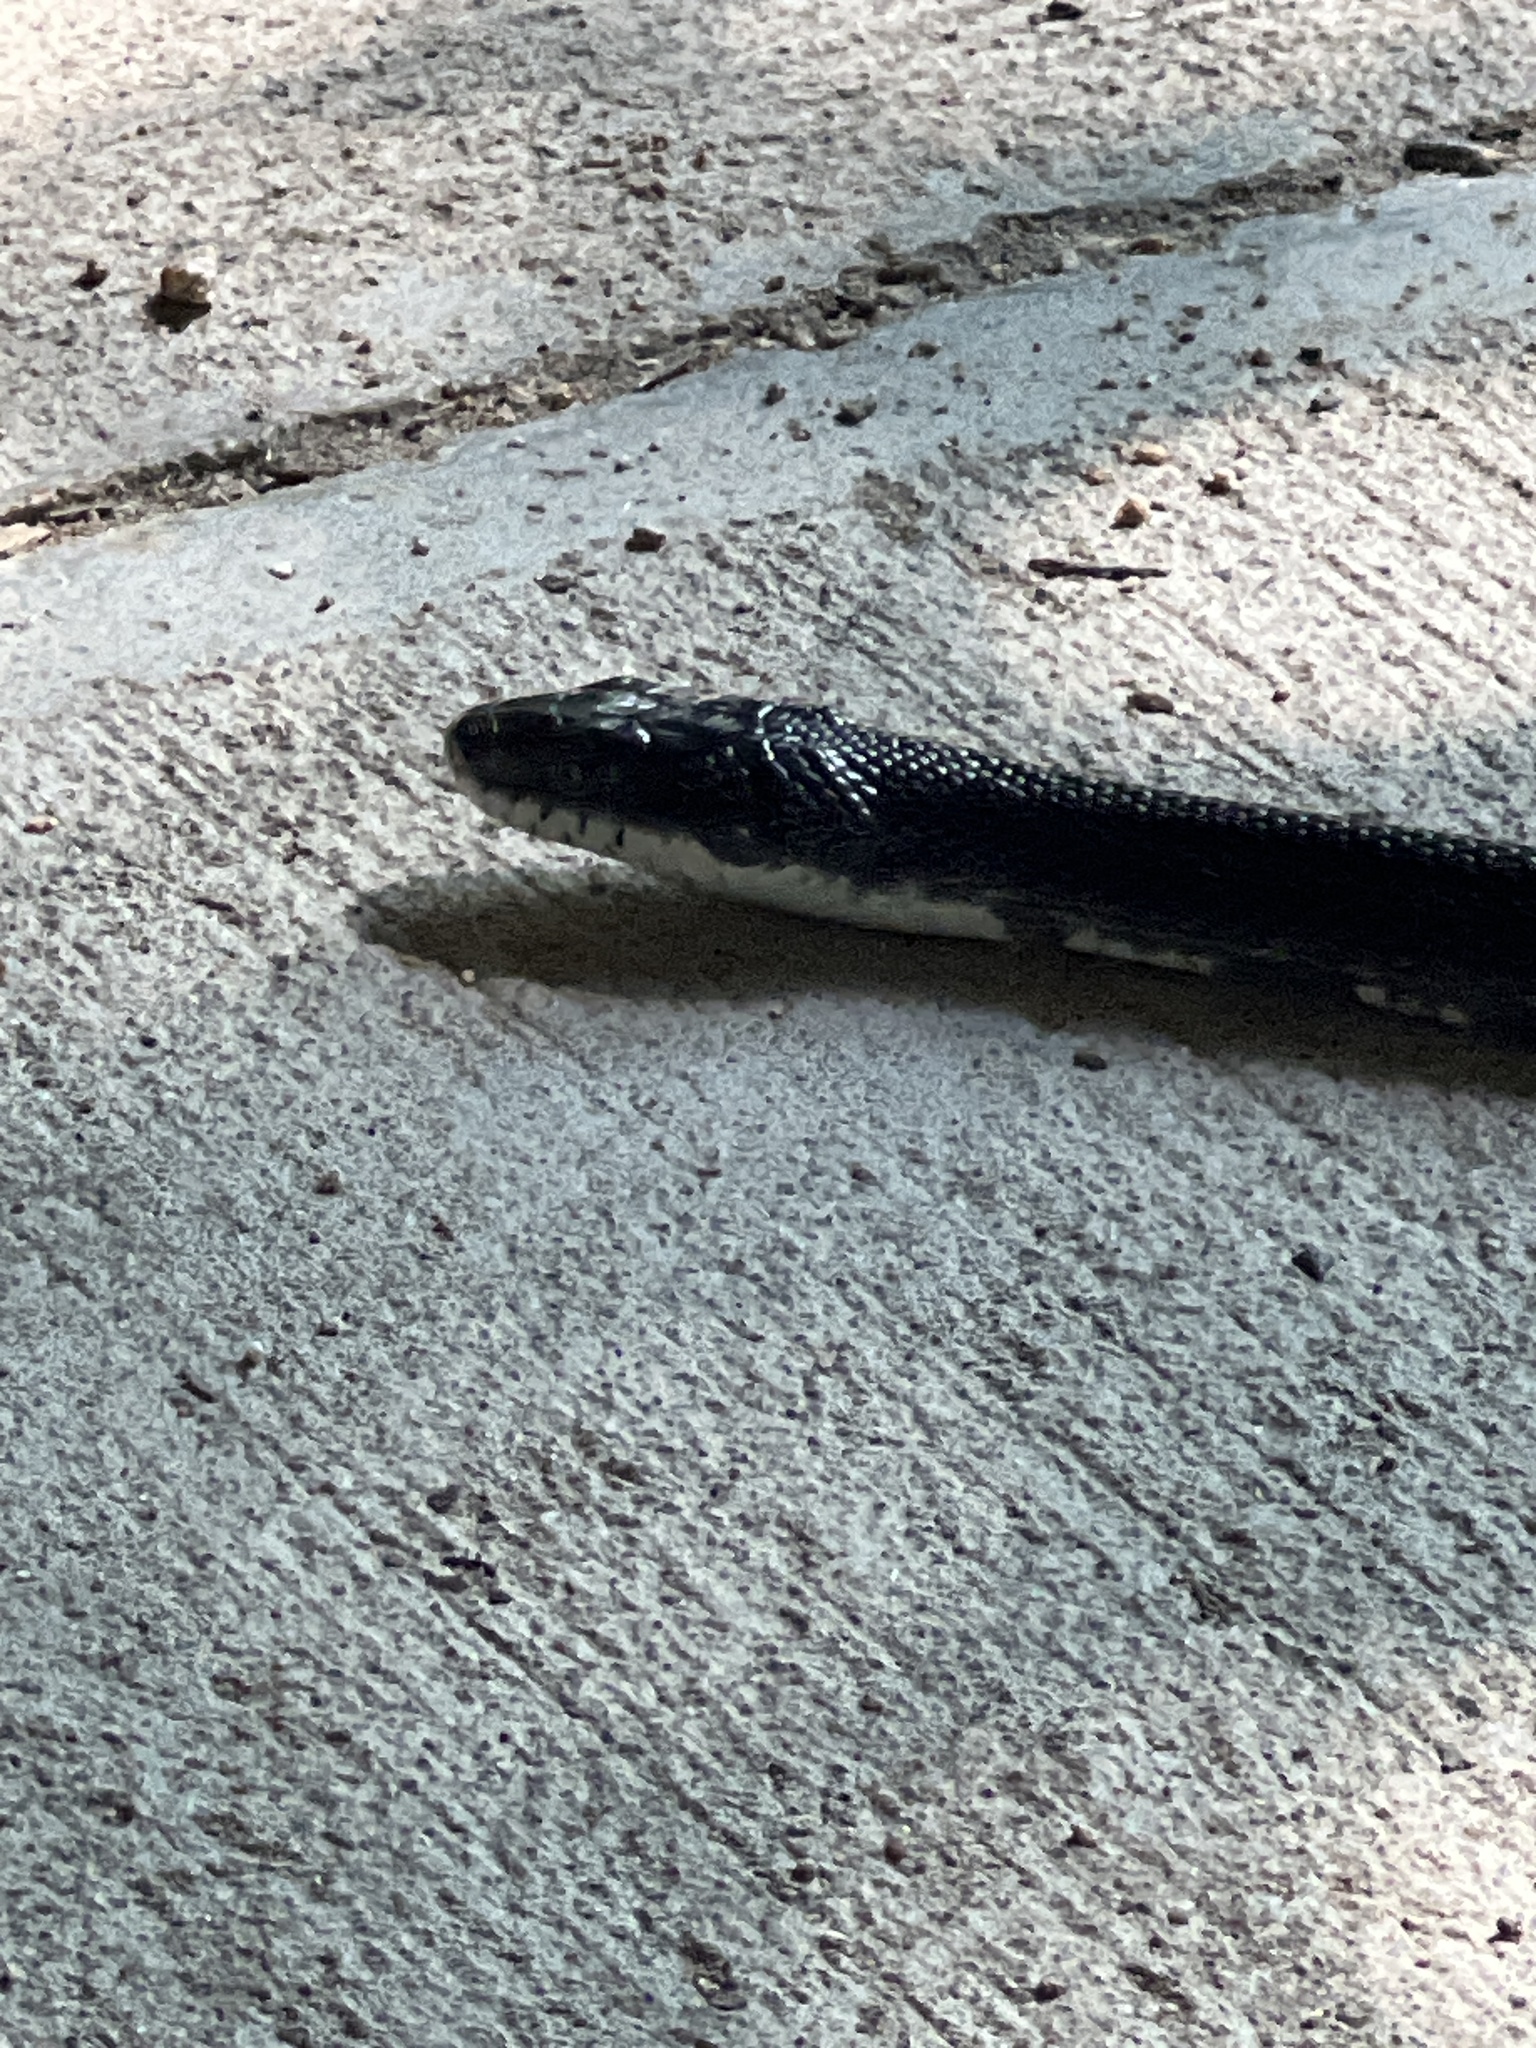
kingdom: Animalia
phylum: Chordata
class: Squamata
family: Colubridae
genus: Pantherophis
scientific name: Pantherophis alleghaniensis
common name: Eastern rat snake
